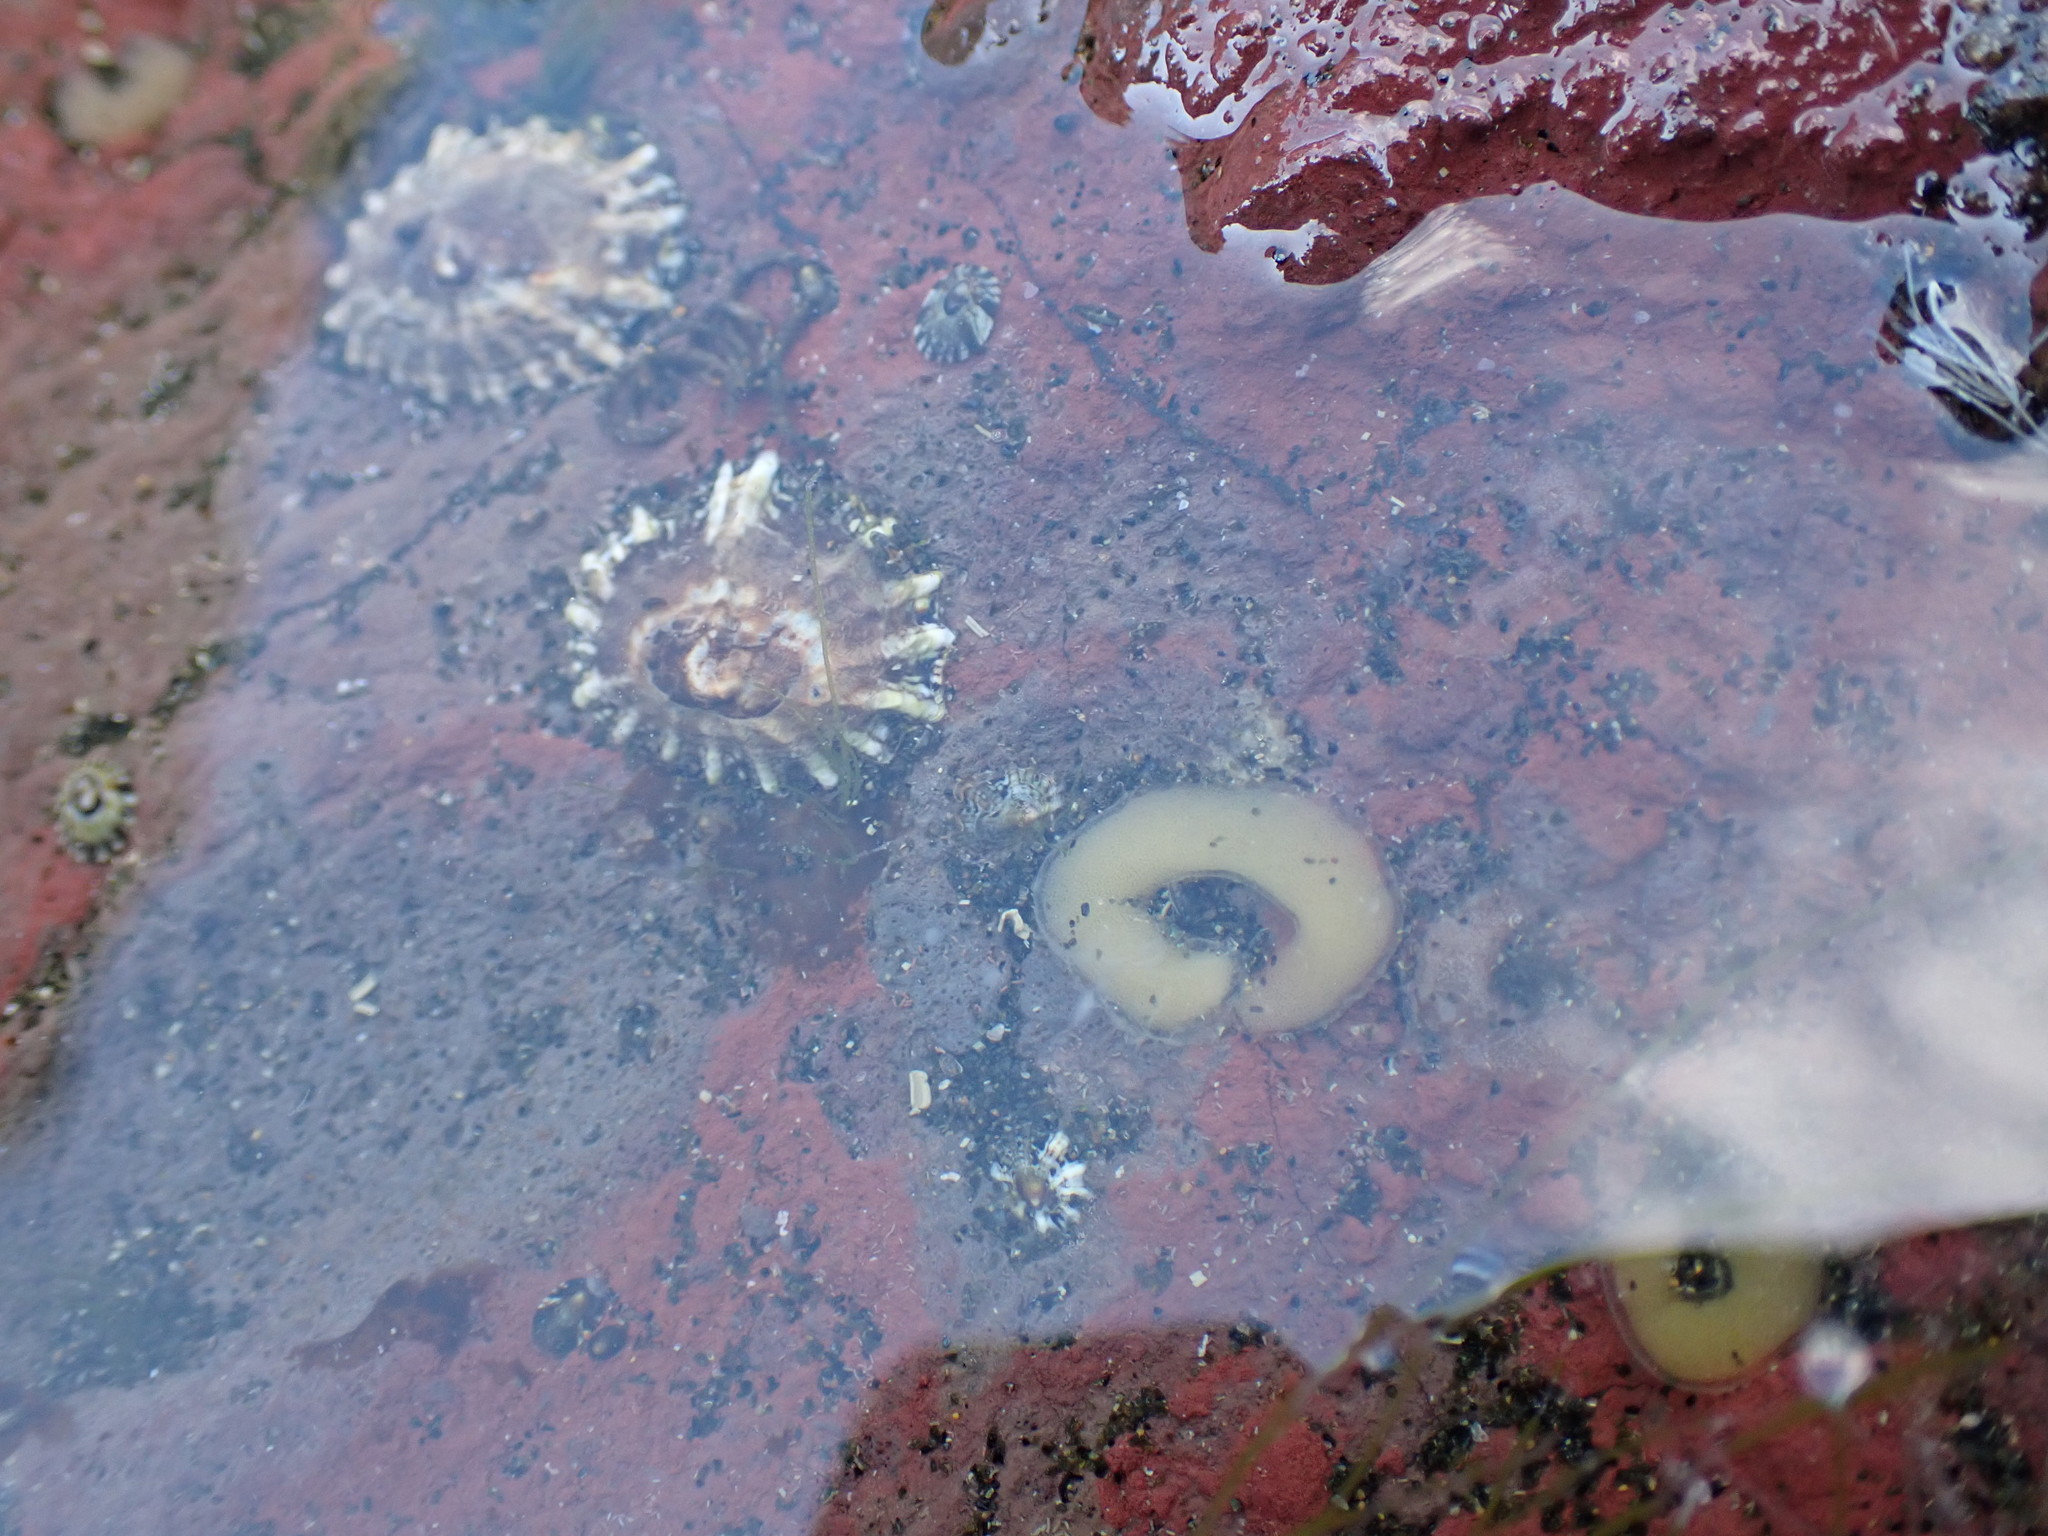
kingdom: Animalia
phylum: Mollusca
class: Gastropoda
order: Siphonariida
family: Siphonariidae
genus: Siphonaria
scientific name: Siphonaria australis
